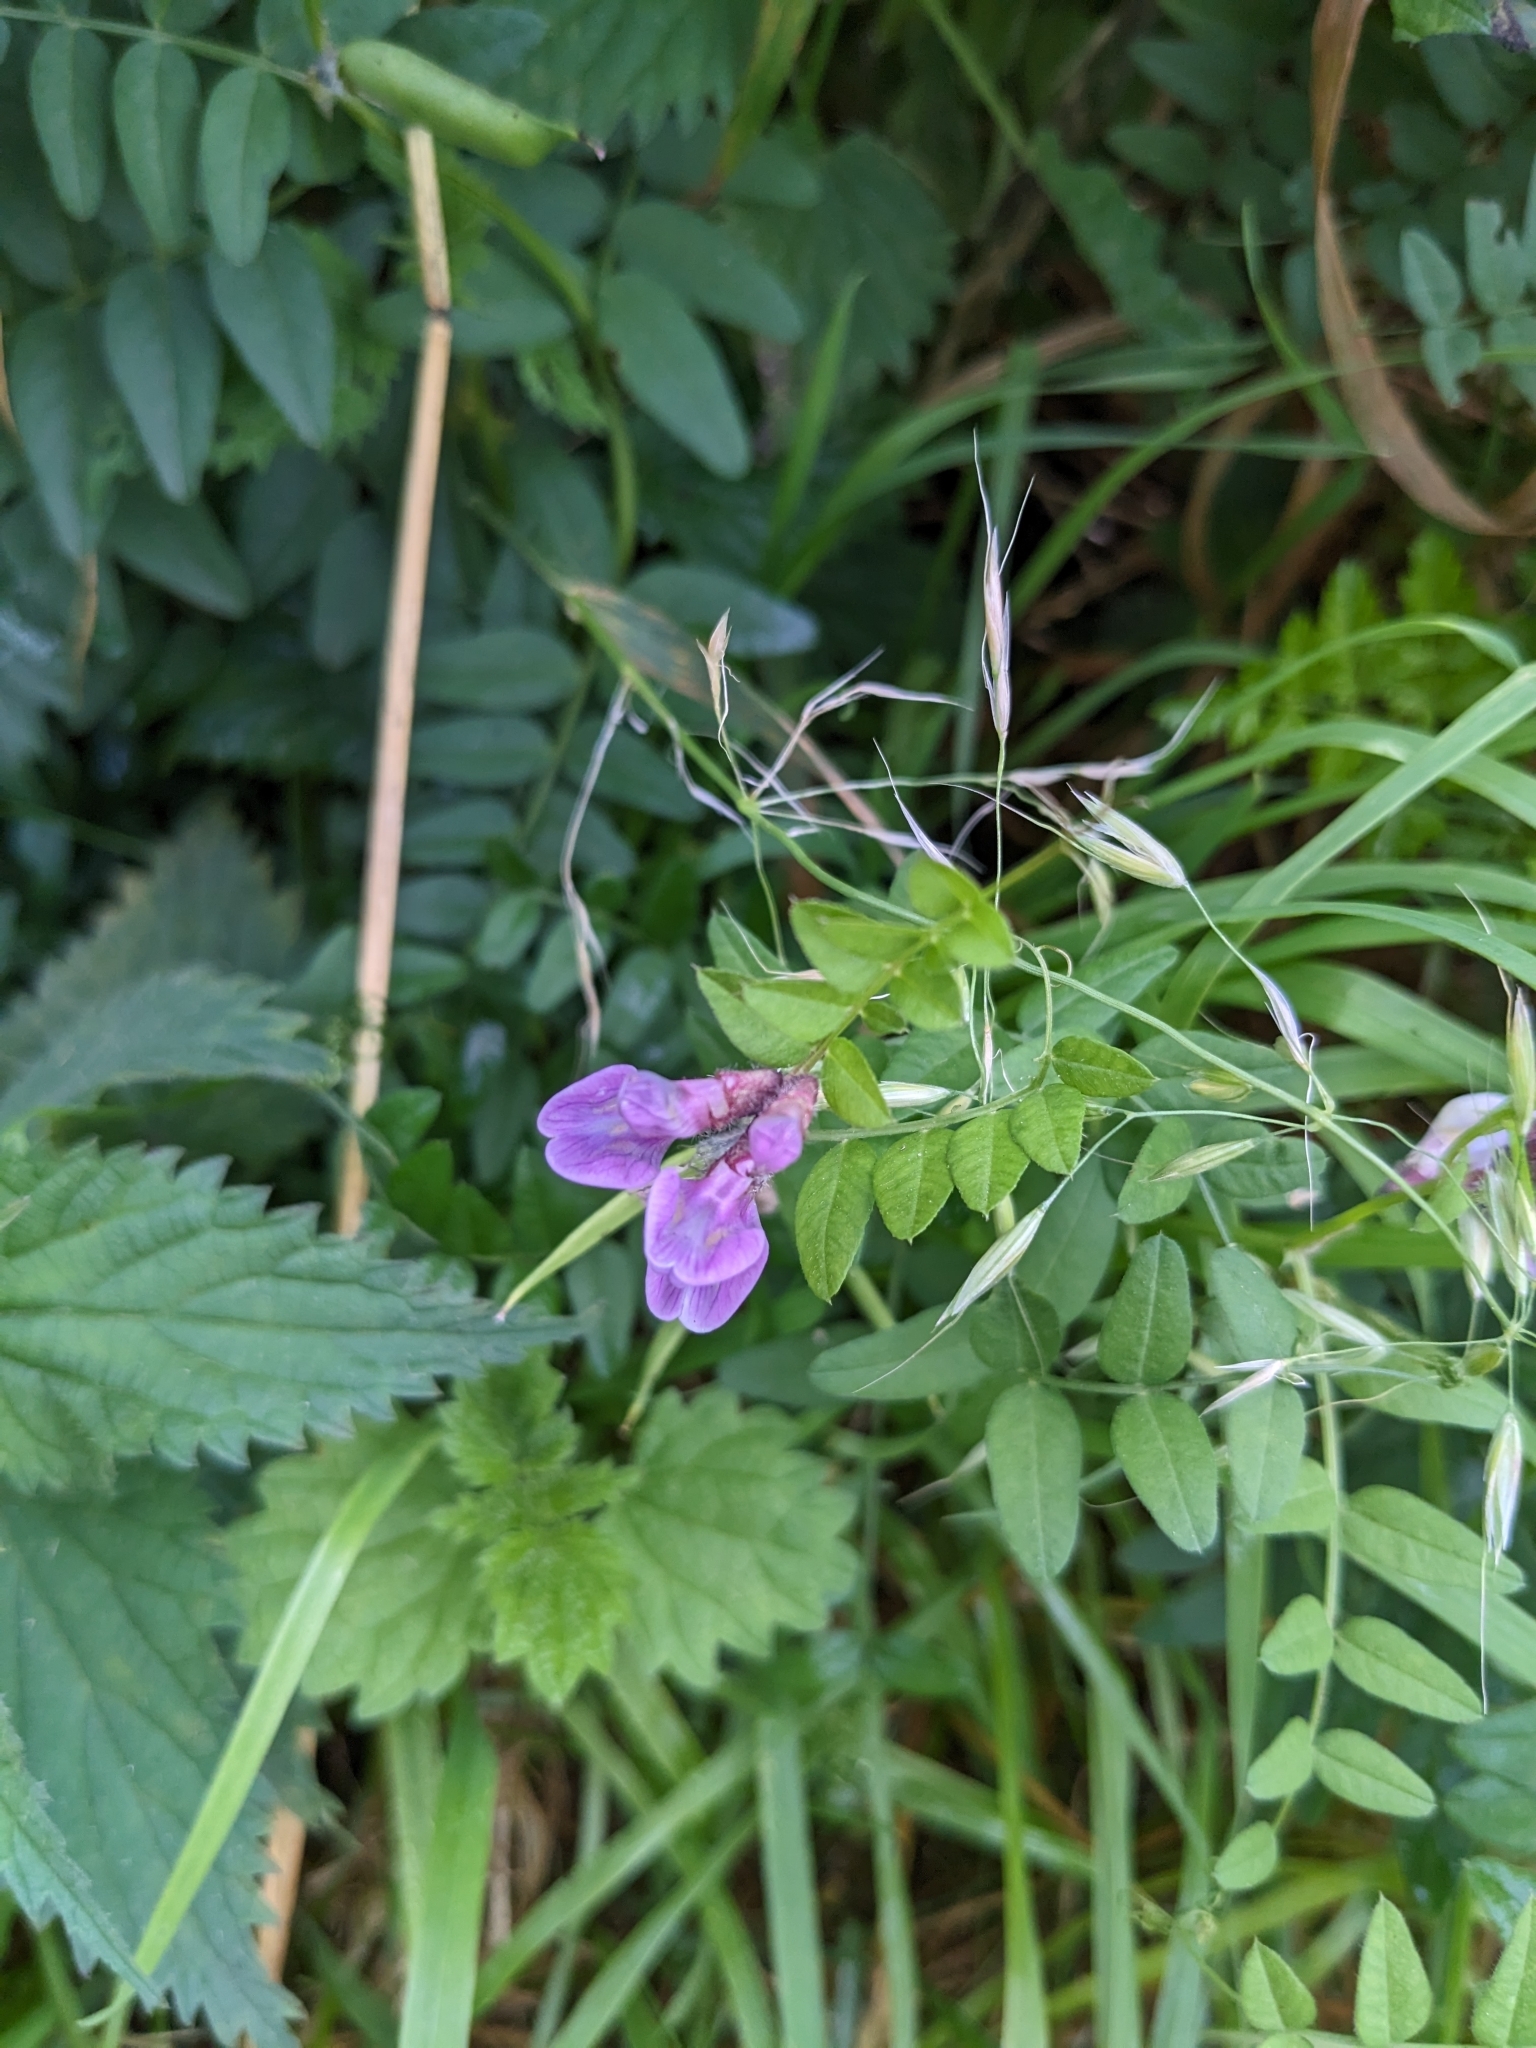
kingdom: Plantae
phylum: Tracheophyta
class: Magnoliopsida
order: Fabales
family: Fabaceae
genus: Vicia
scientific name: Vicia sepium
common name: Bush vetch
